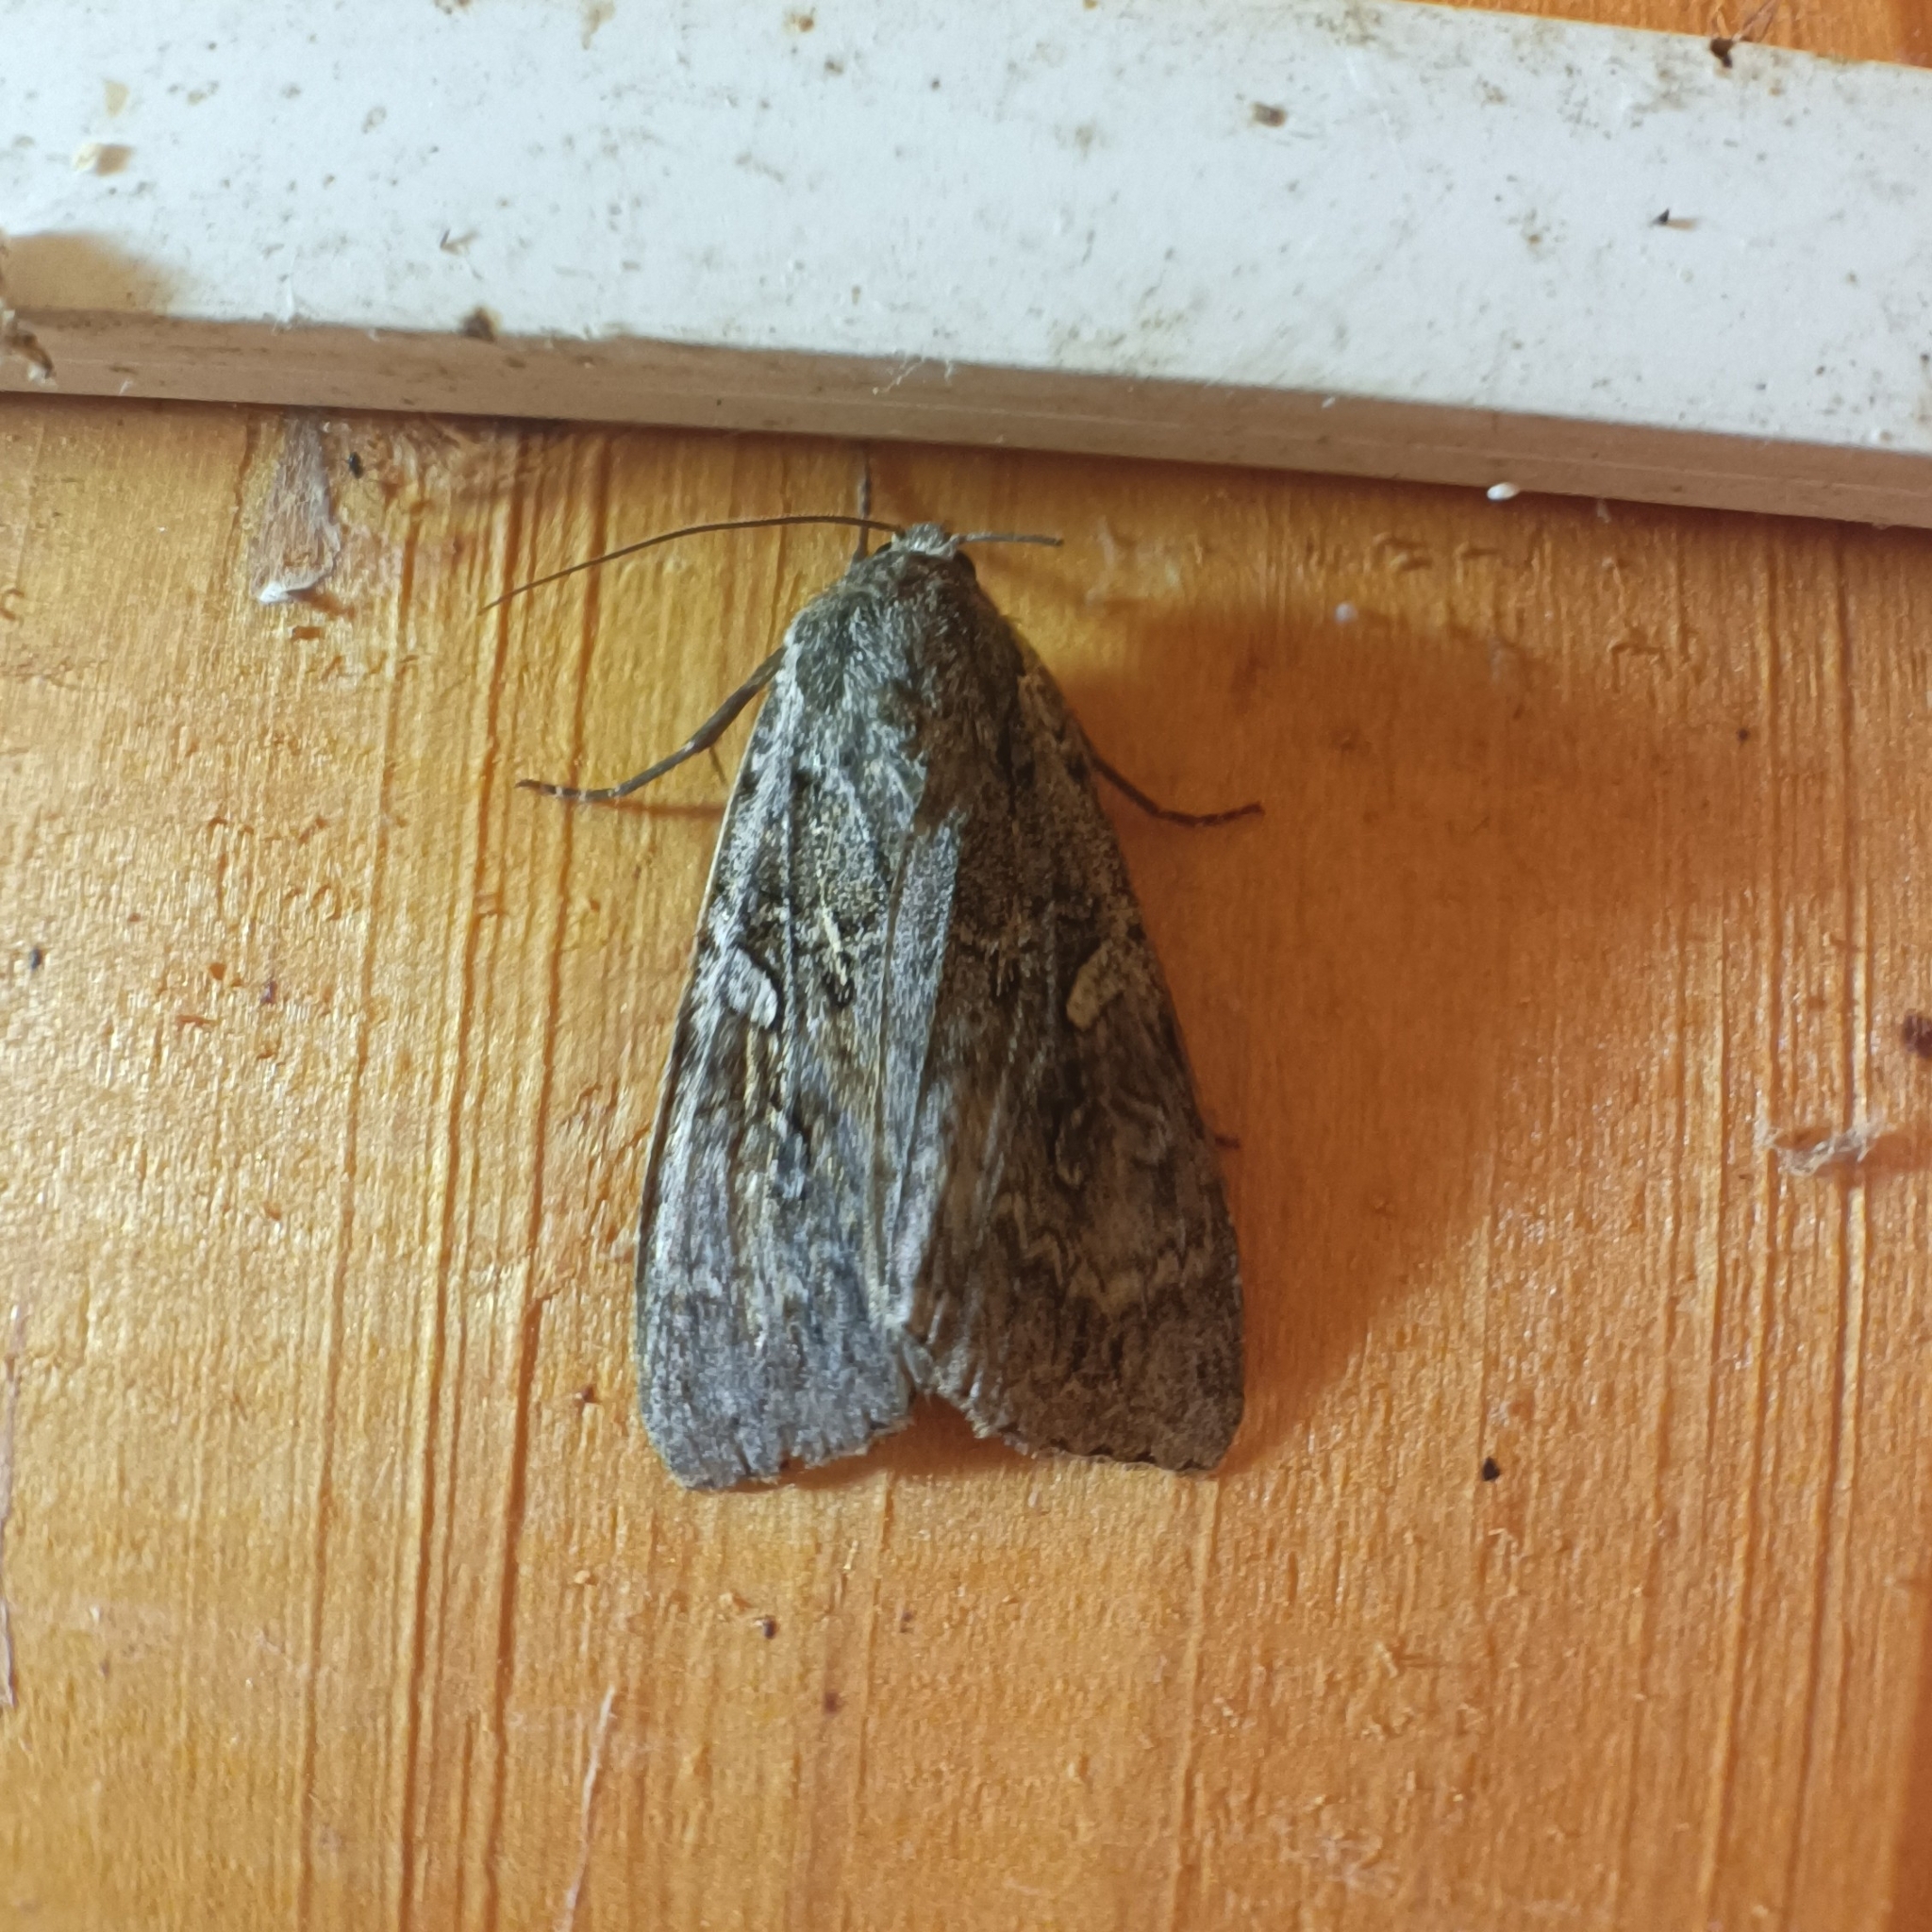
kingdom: Animalia
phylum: Arthropoda
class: Insecta
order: Lepidoptera
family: Noctuidae
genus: Eurois
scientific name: Eurois occulta
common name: Great brocade
